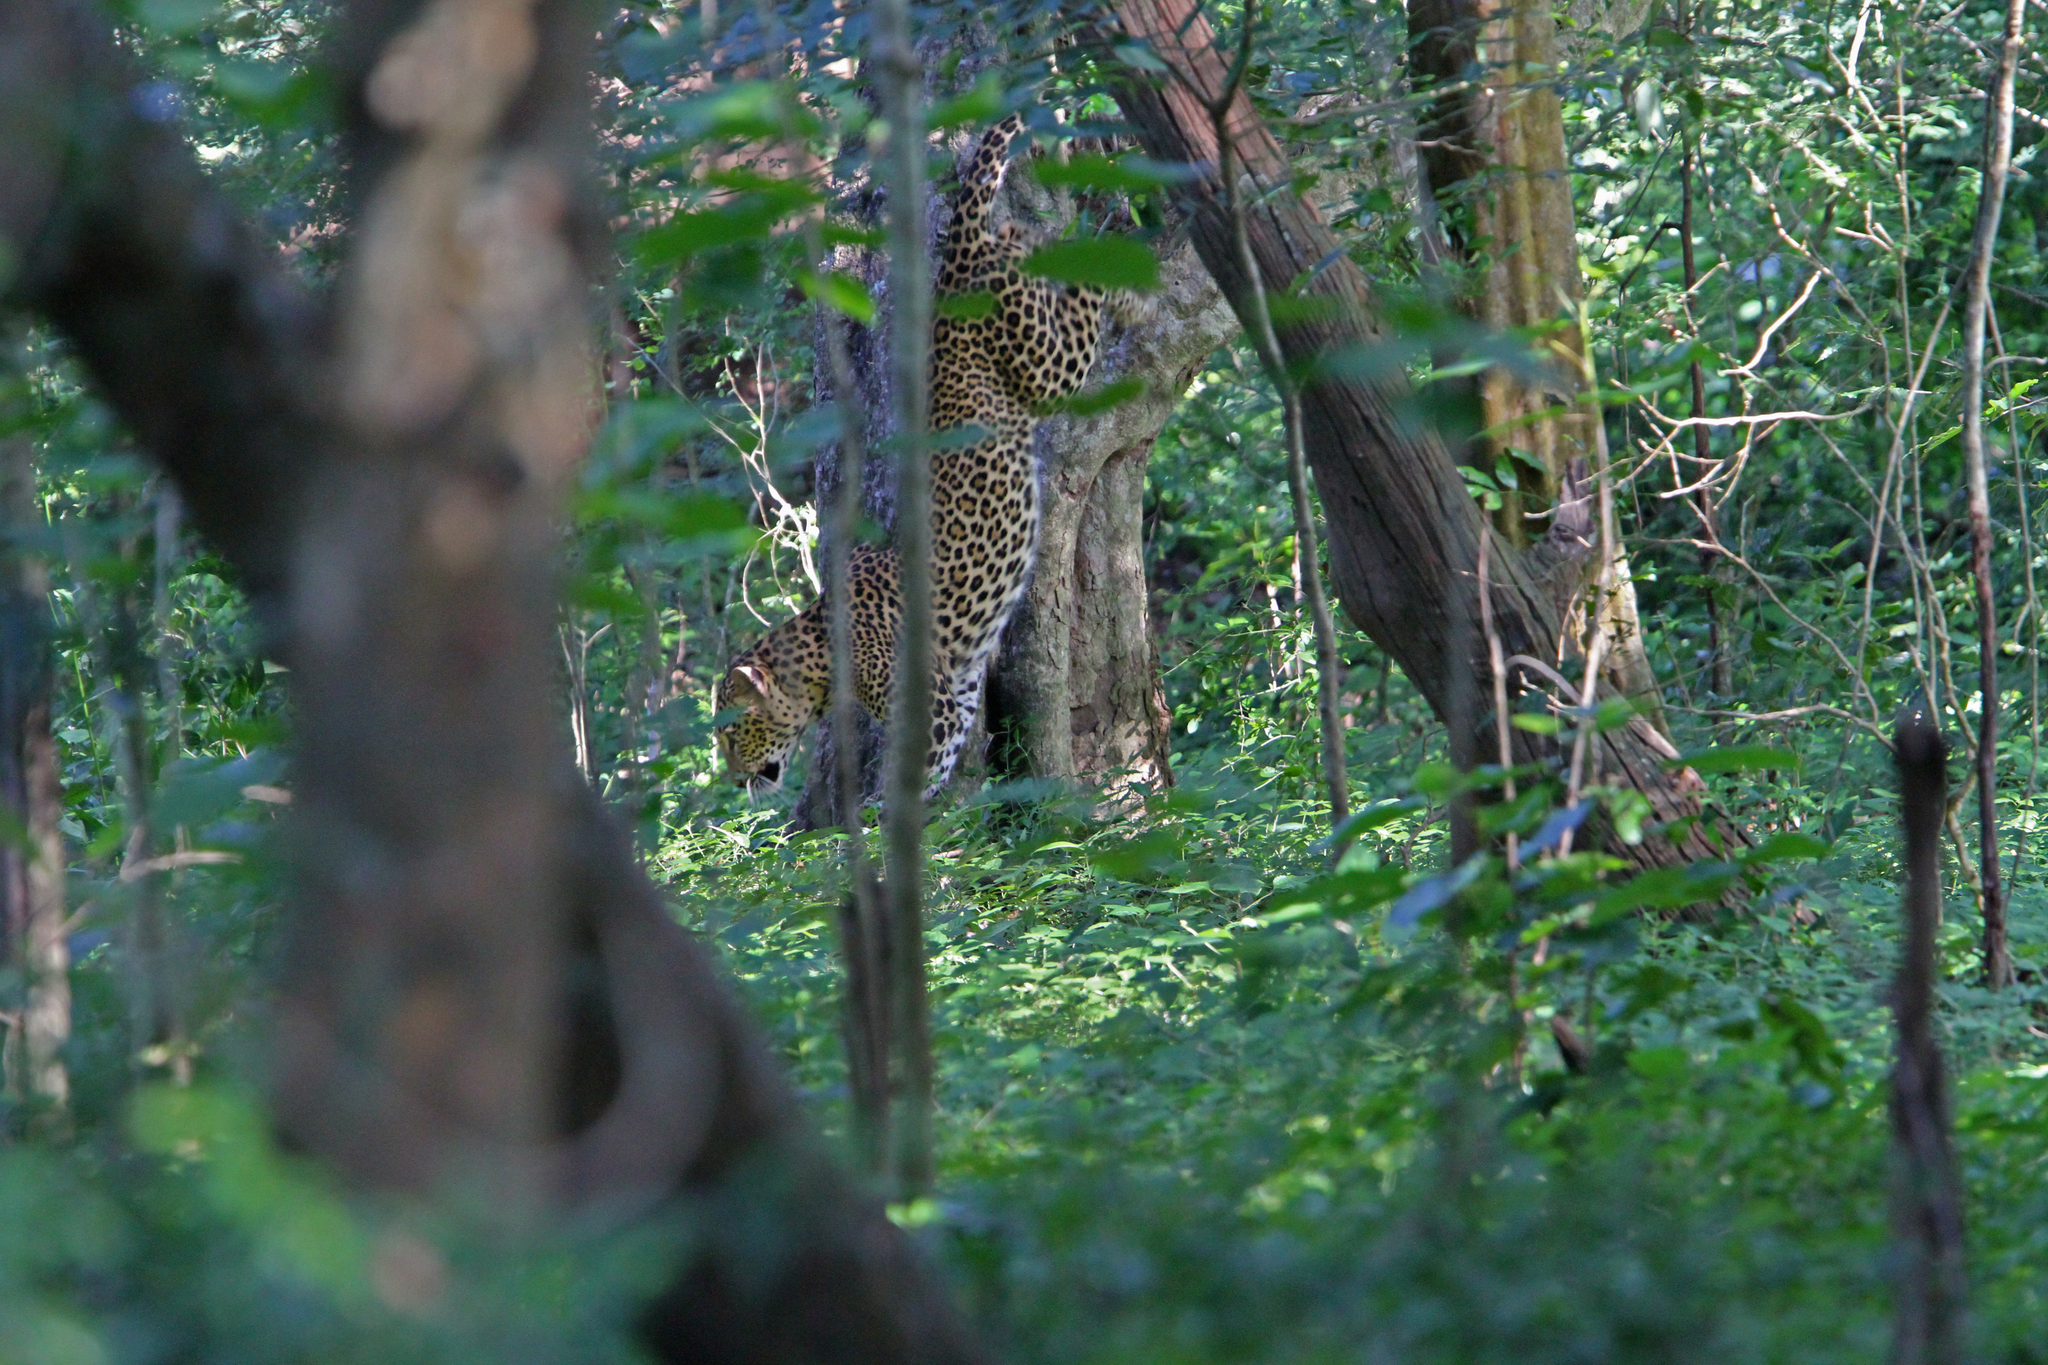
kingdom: Animalia
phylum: Chordata
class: Mammalia
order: Carnivora
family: Felidae
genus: Panthera
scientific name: Panthera pardus
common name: Leopard
